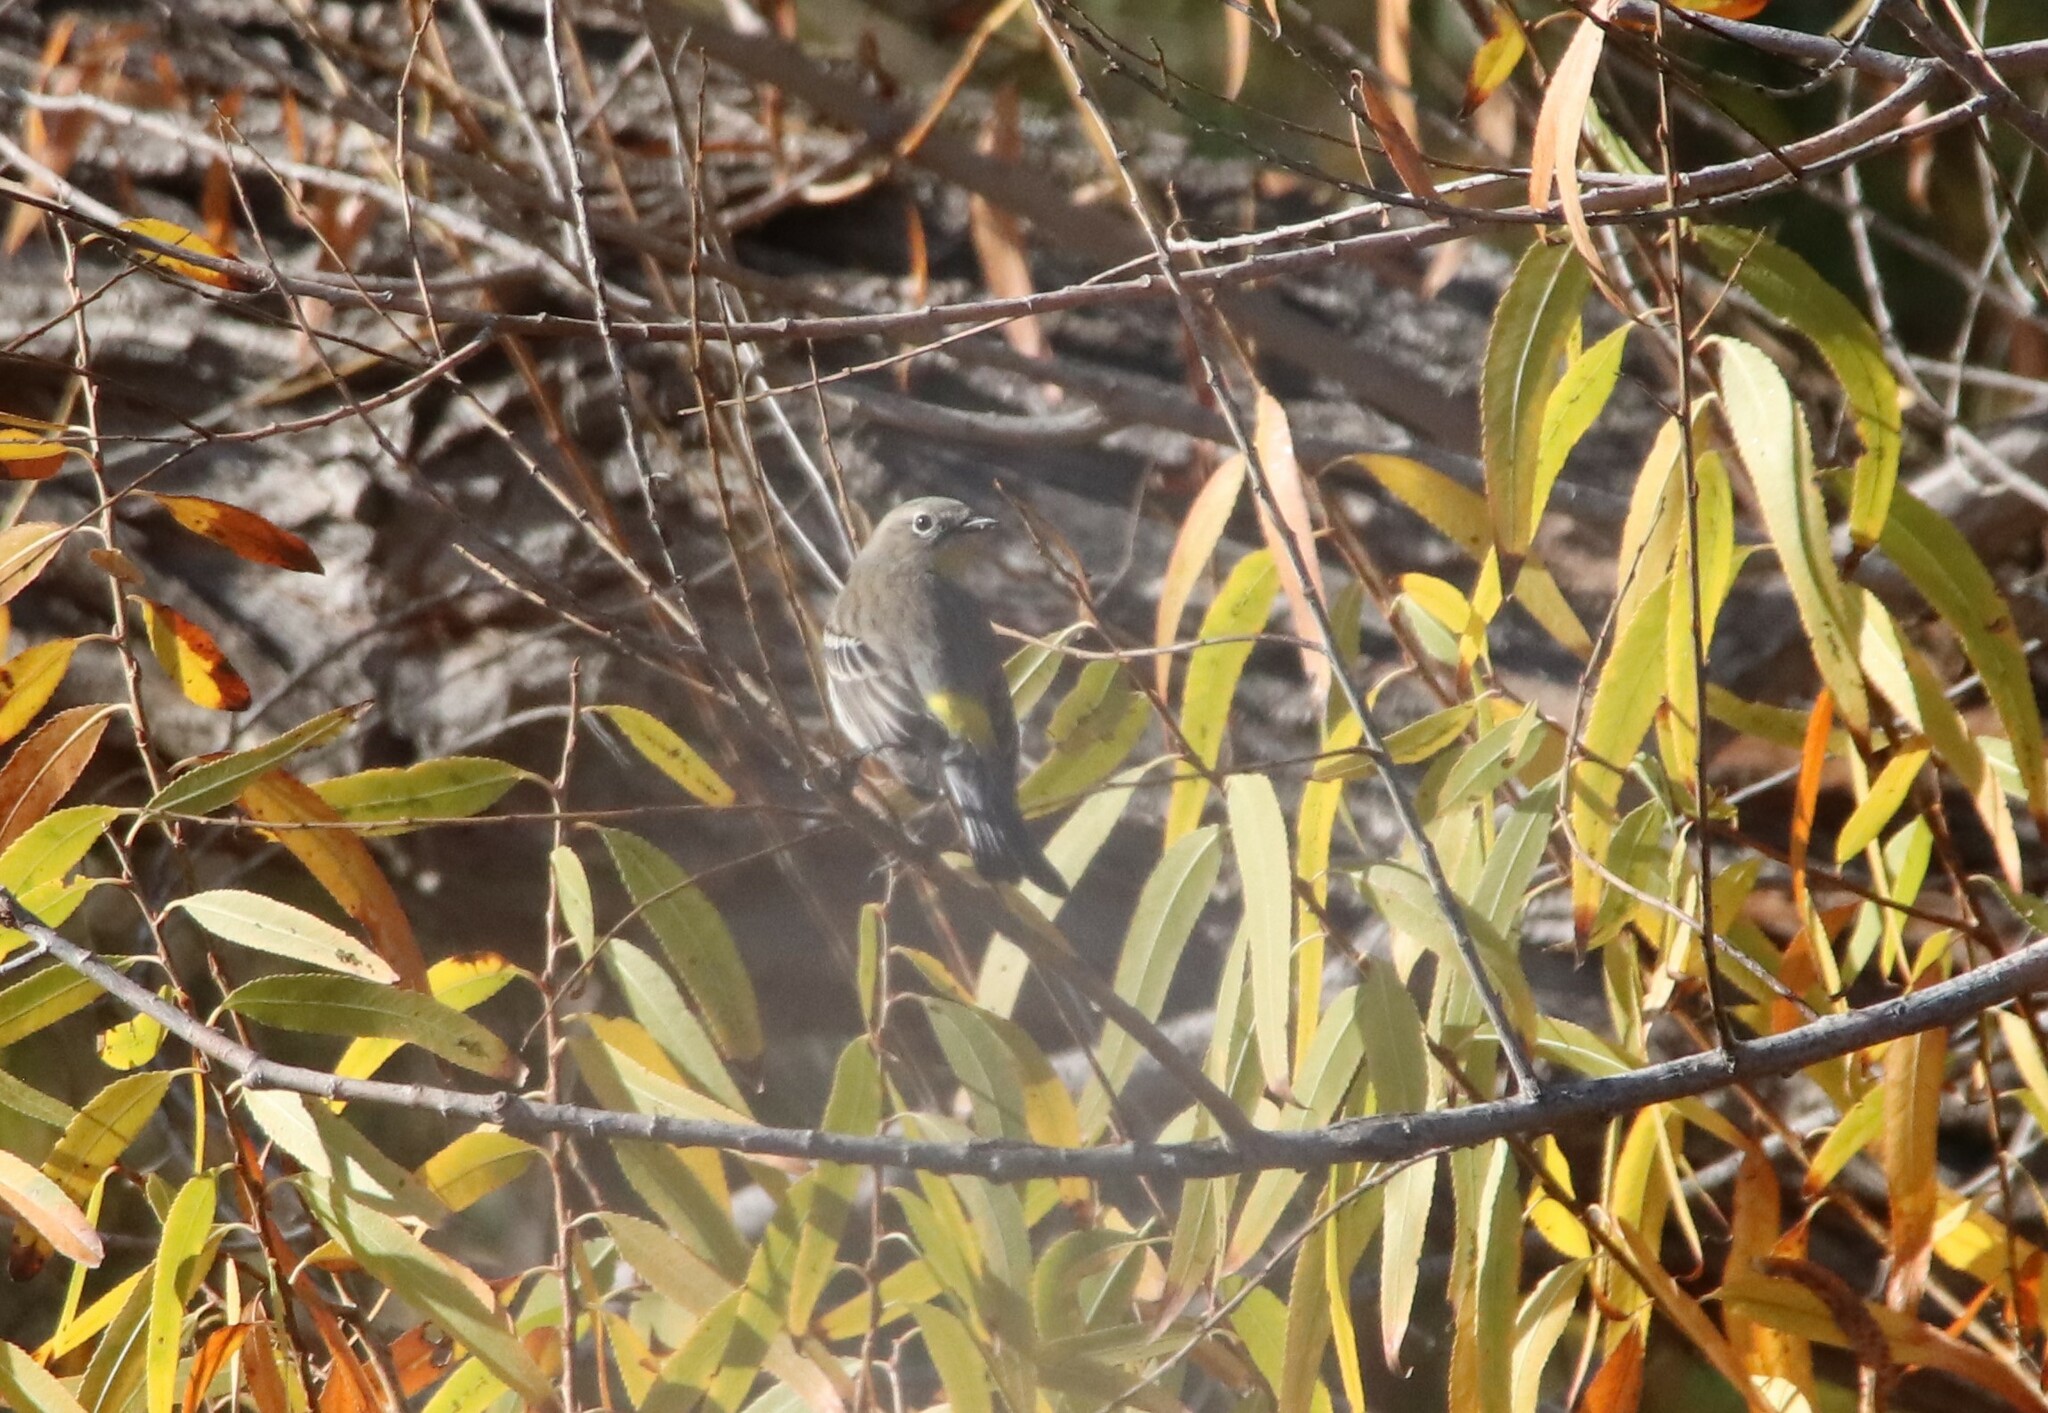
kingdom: Animalia
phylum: Chordata
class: Aves
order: Passeriformes
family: Parulidae
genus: Setophaga
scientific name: Setophaga coronata
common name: Myrtle warbler
